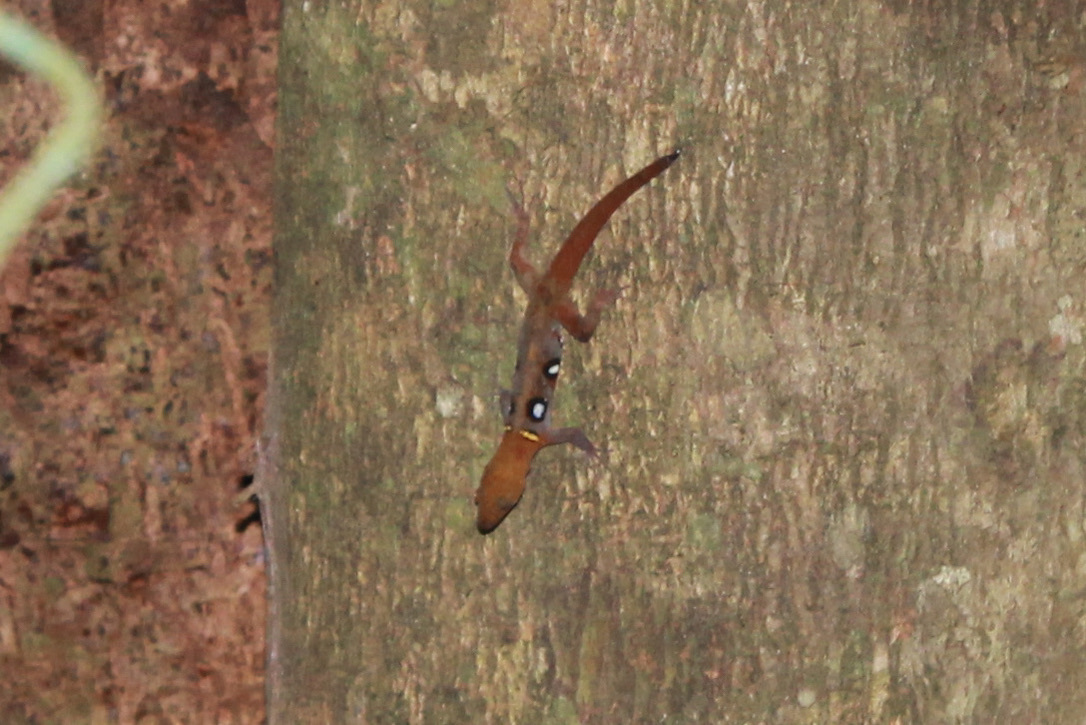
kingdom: Animalia
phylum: Chordata
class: Squamata
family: Sphaerodactylidae
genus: Gonatodes
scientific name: Gonatodes ocellatus
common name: Eyespot gecko
